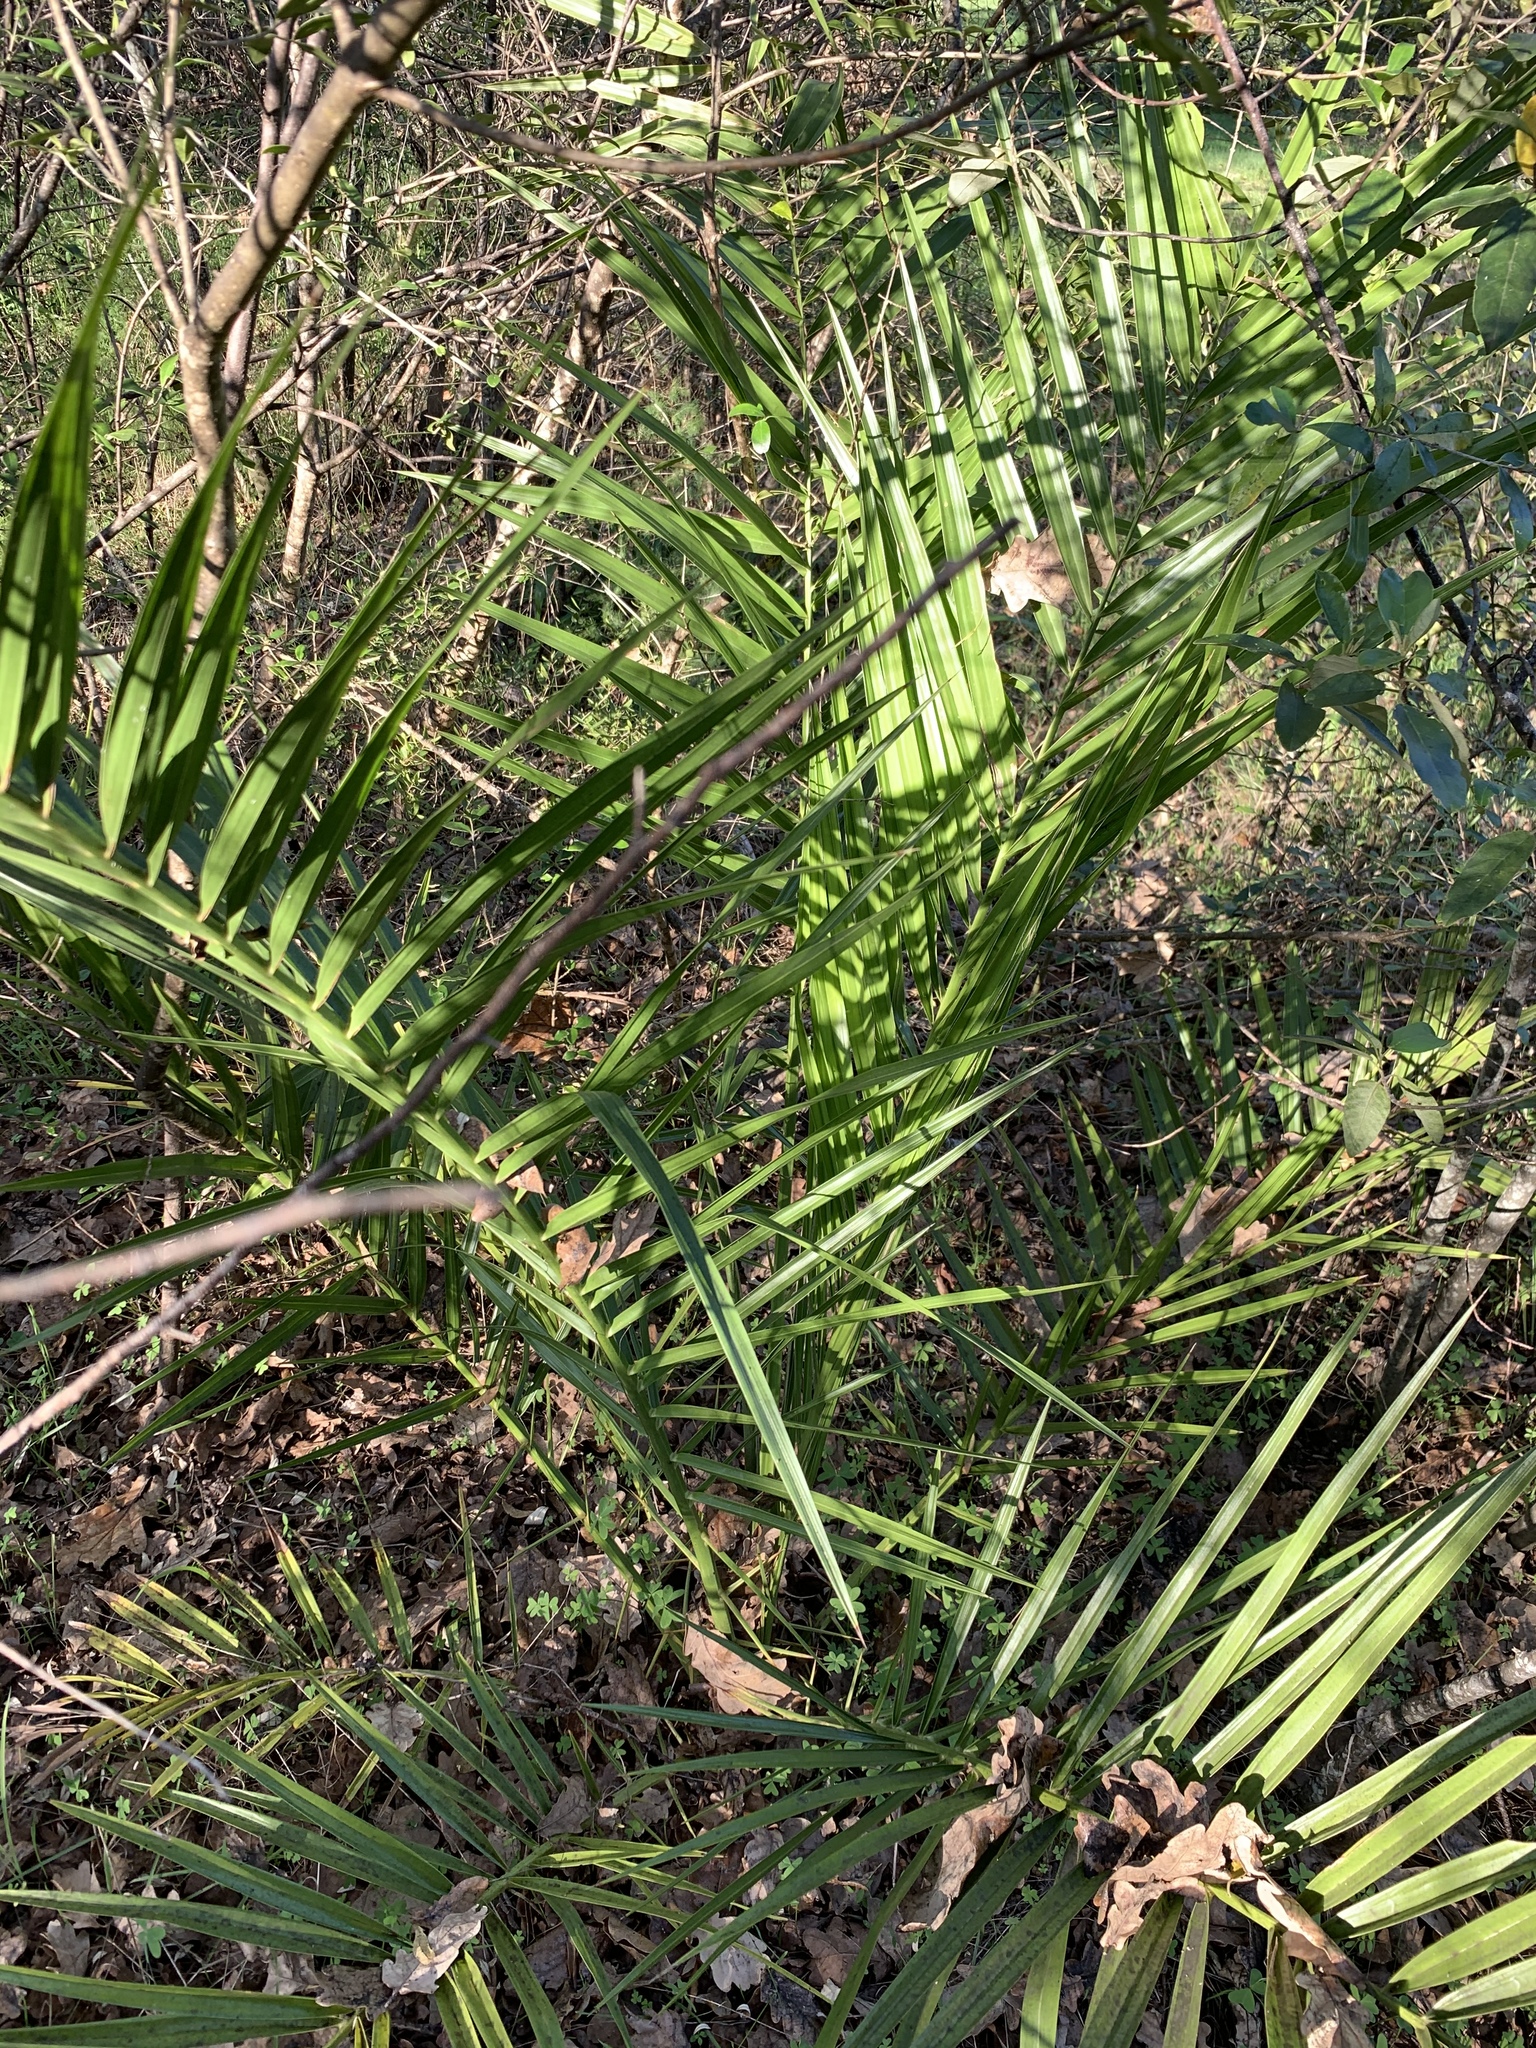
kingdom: Plantae
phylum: Tracheophyta
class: Liliopsida
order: Arecales
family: Arecaceae
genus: Phoenix
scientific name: Phoenix canariensis
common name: Canary island date palm
